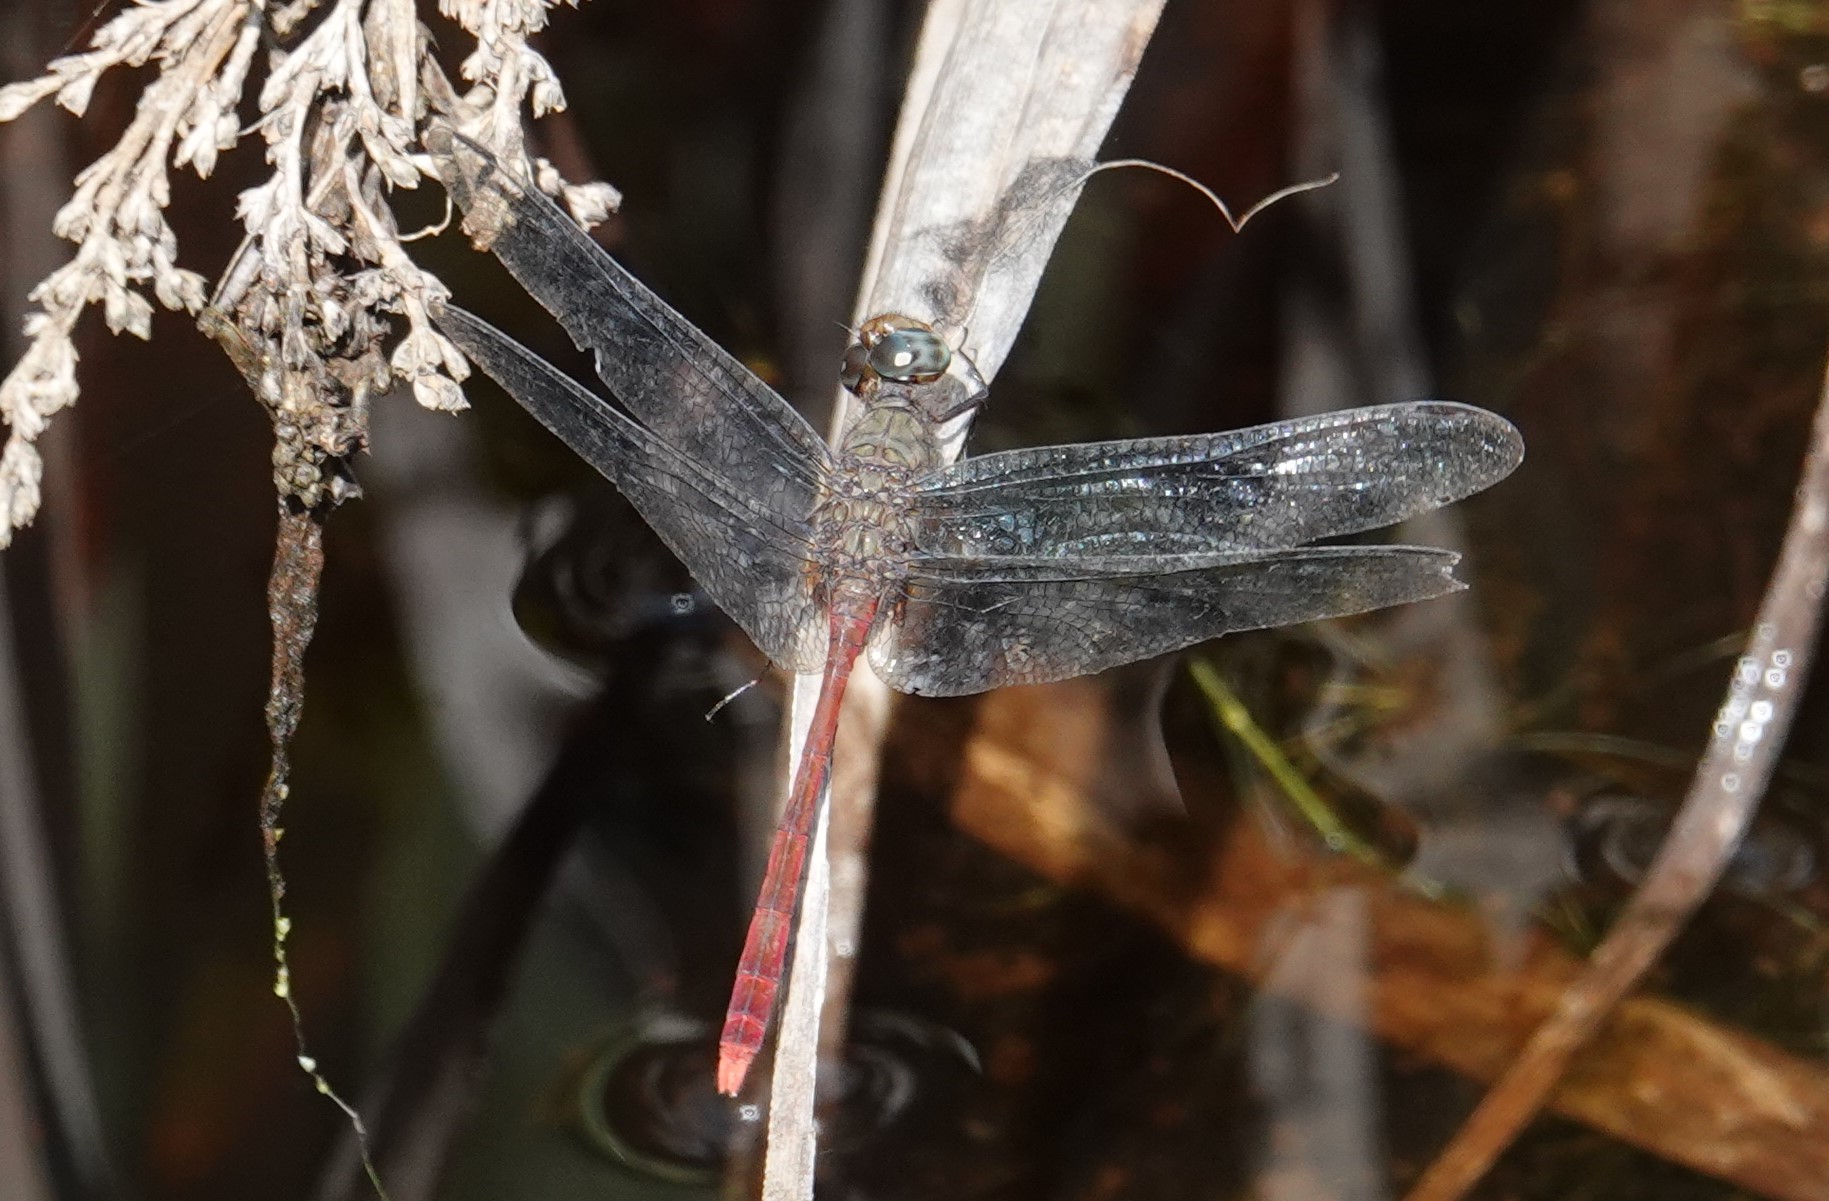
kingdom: Animalia
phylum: Arthropoda
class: Insecta
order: Odonata
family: Libellulidae
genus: Rhodopygia
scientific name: Rhodopygia geijskesi
